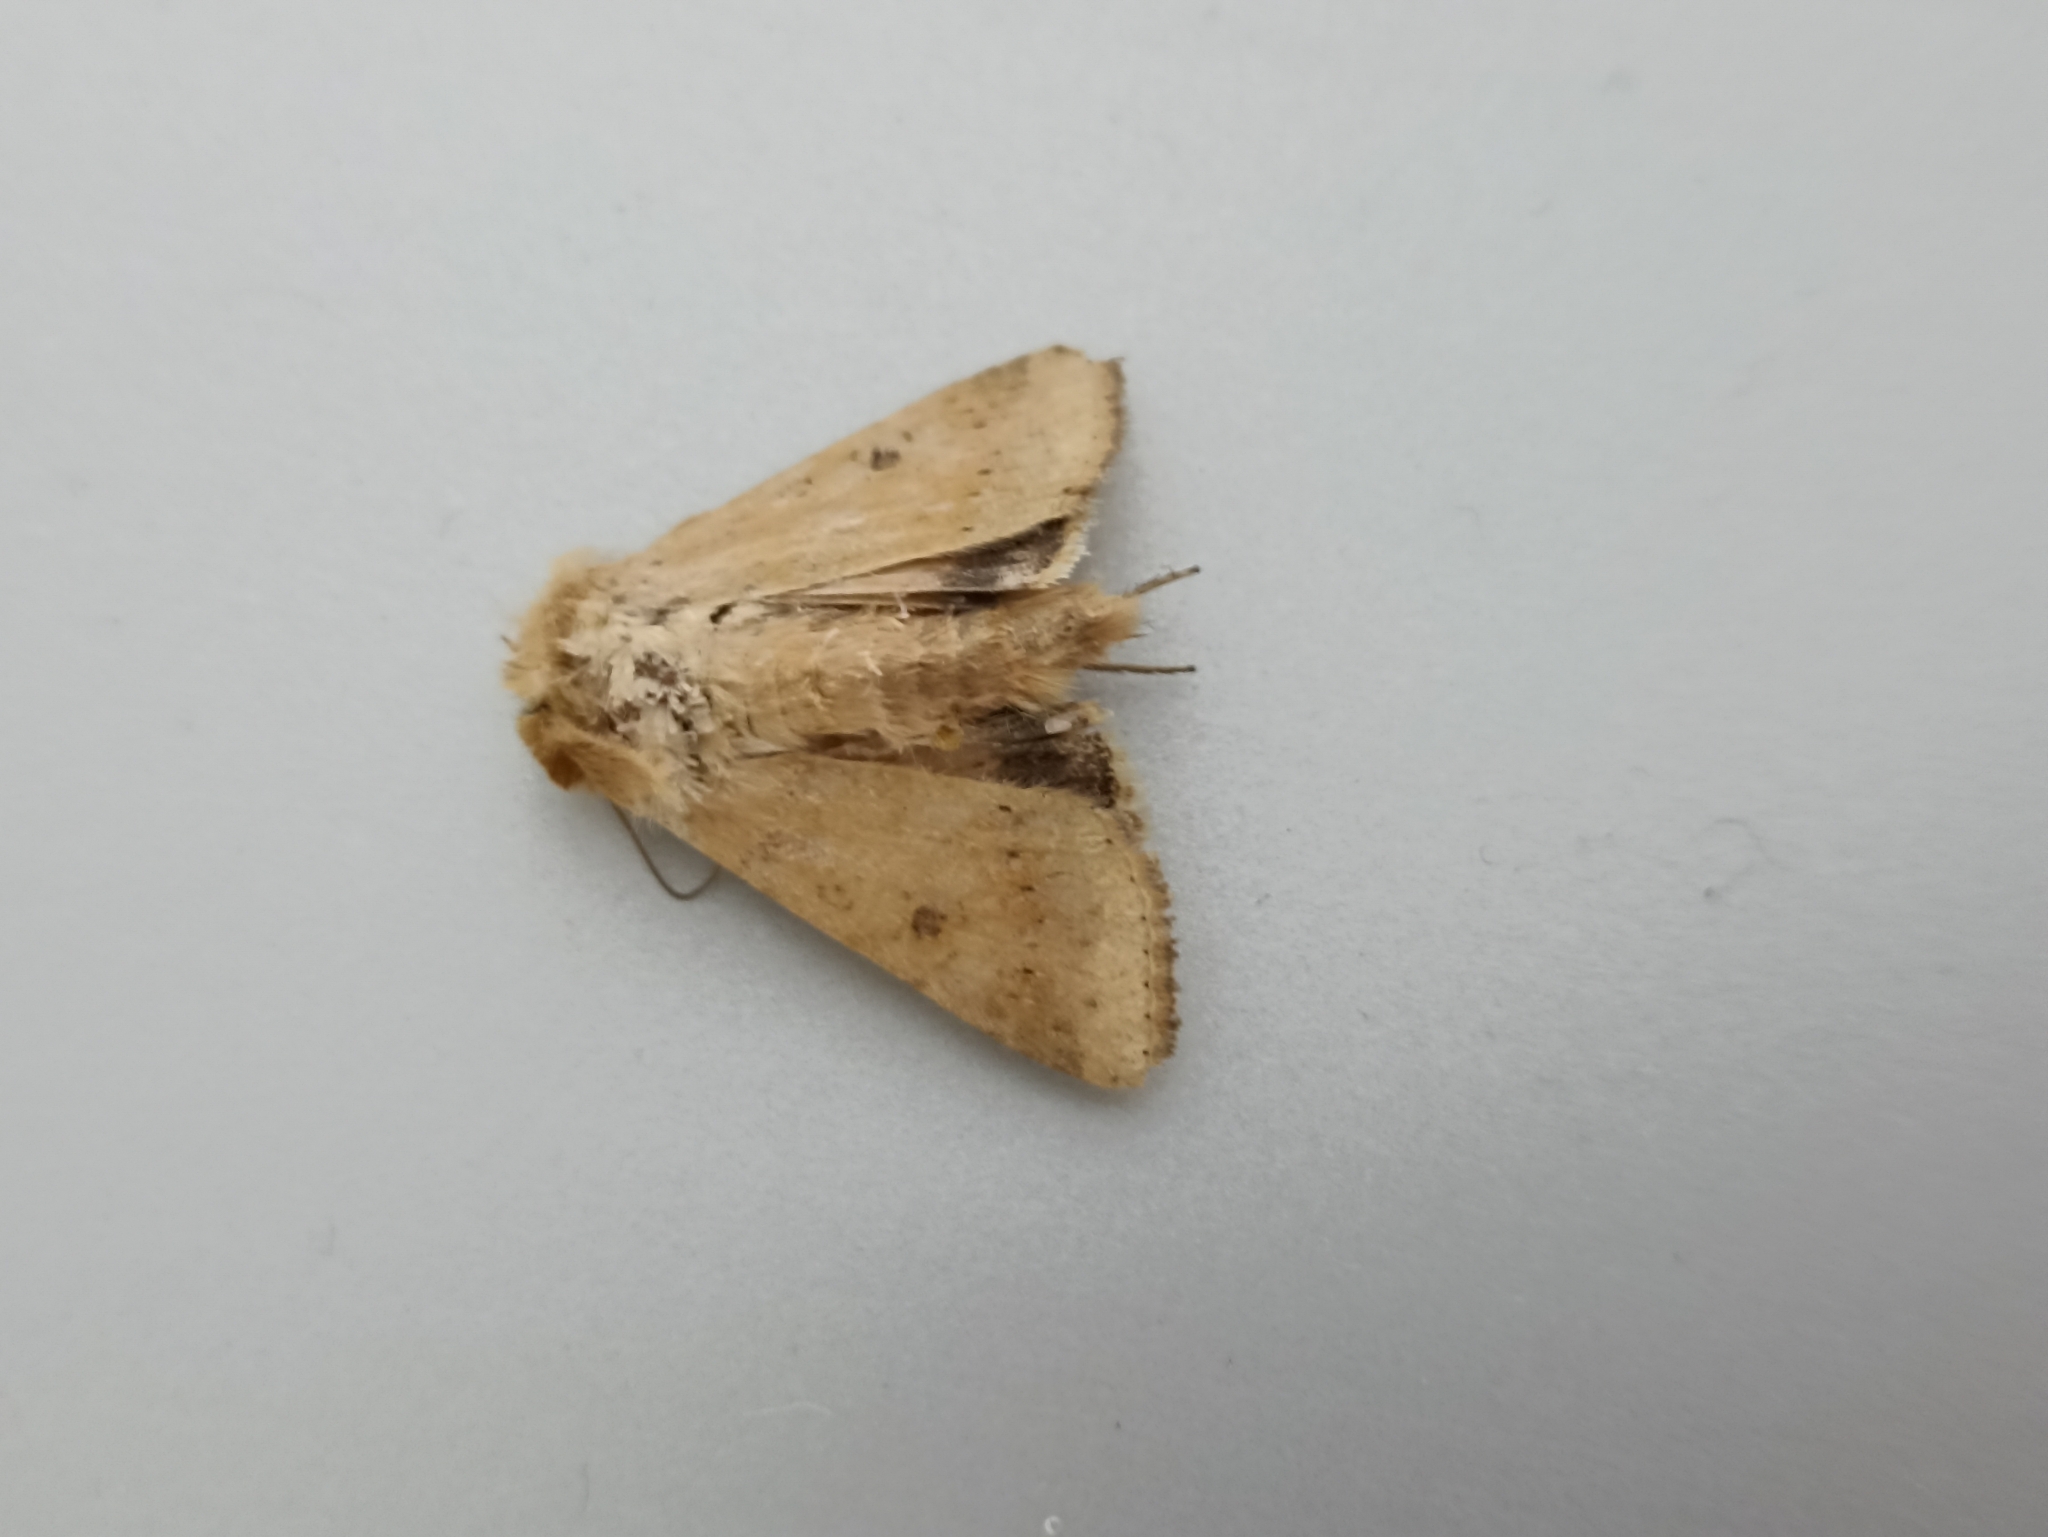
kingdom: Animalia
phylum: Arthropoda
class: Insecta
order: Lepidoptera
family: Noctuidae
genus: Helicoverpa
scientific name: Helicoverpa armigera
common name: Cotton bollworm
